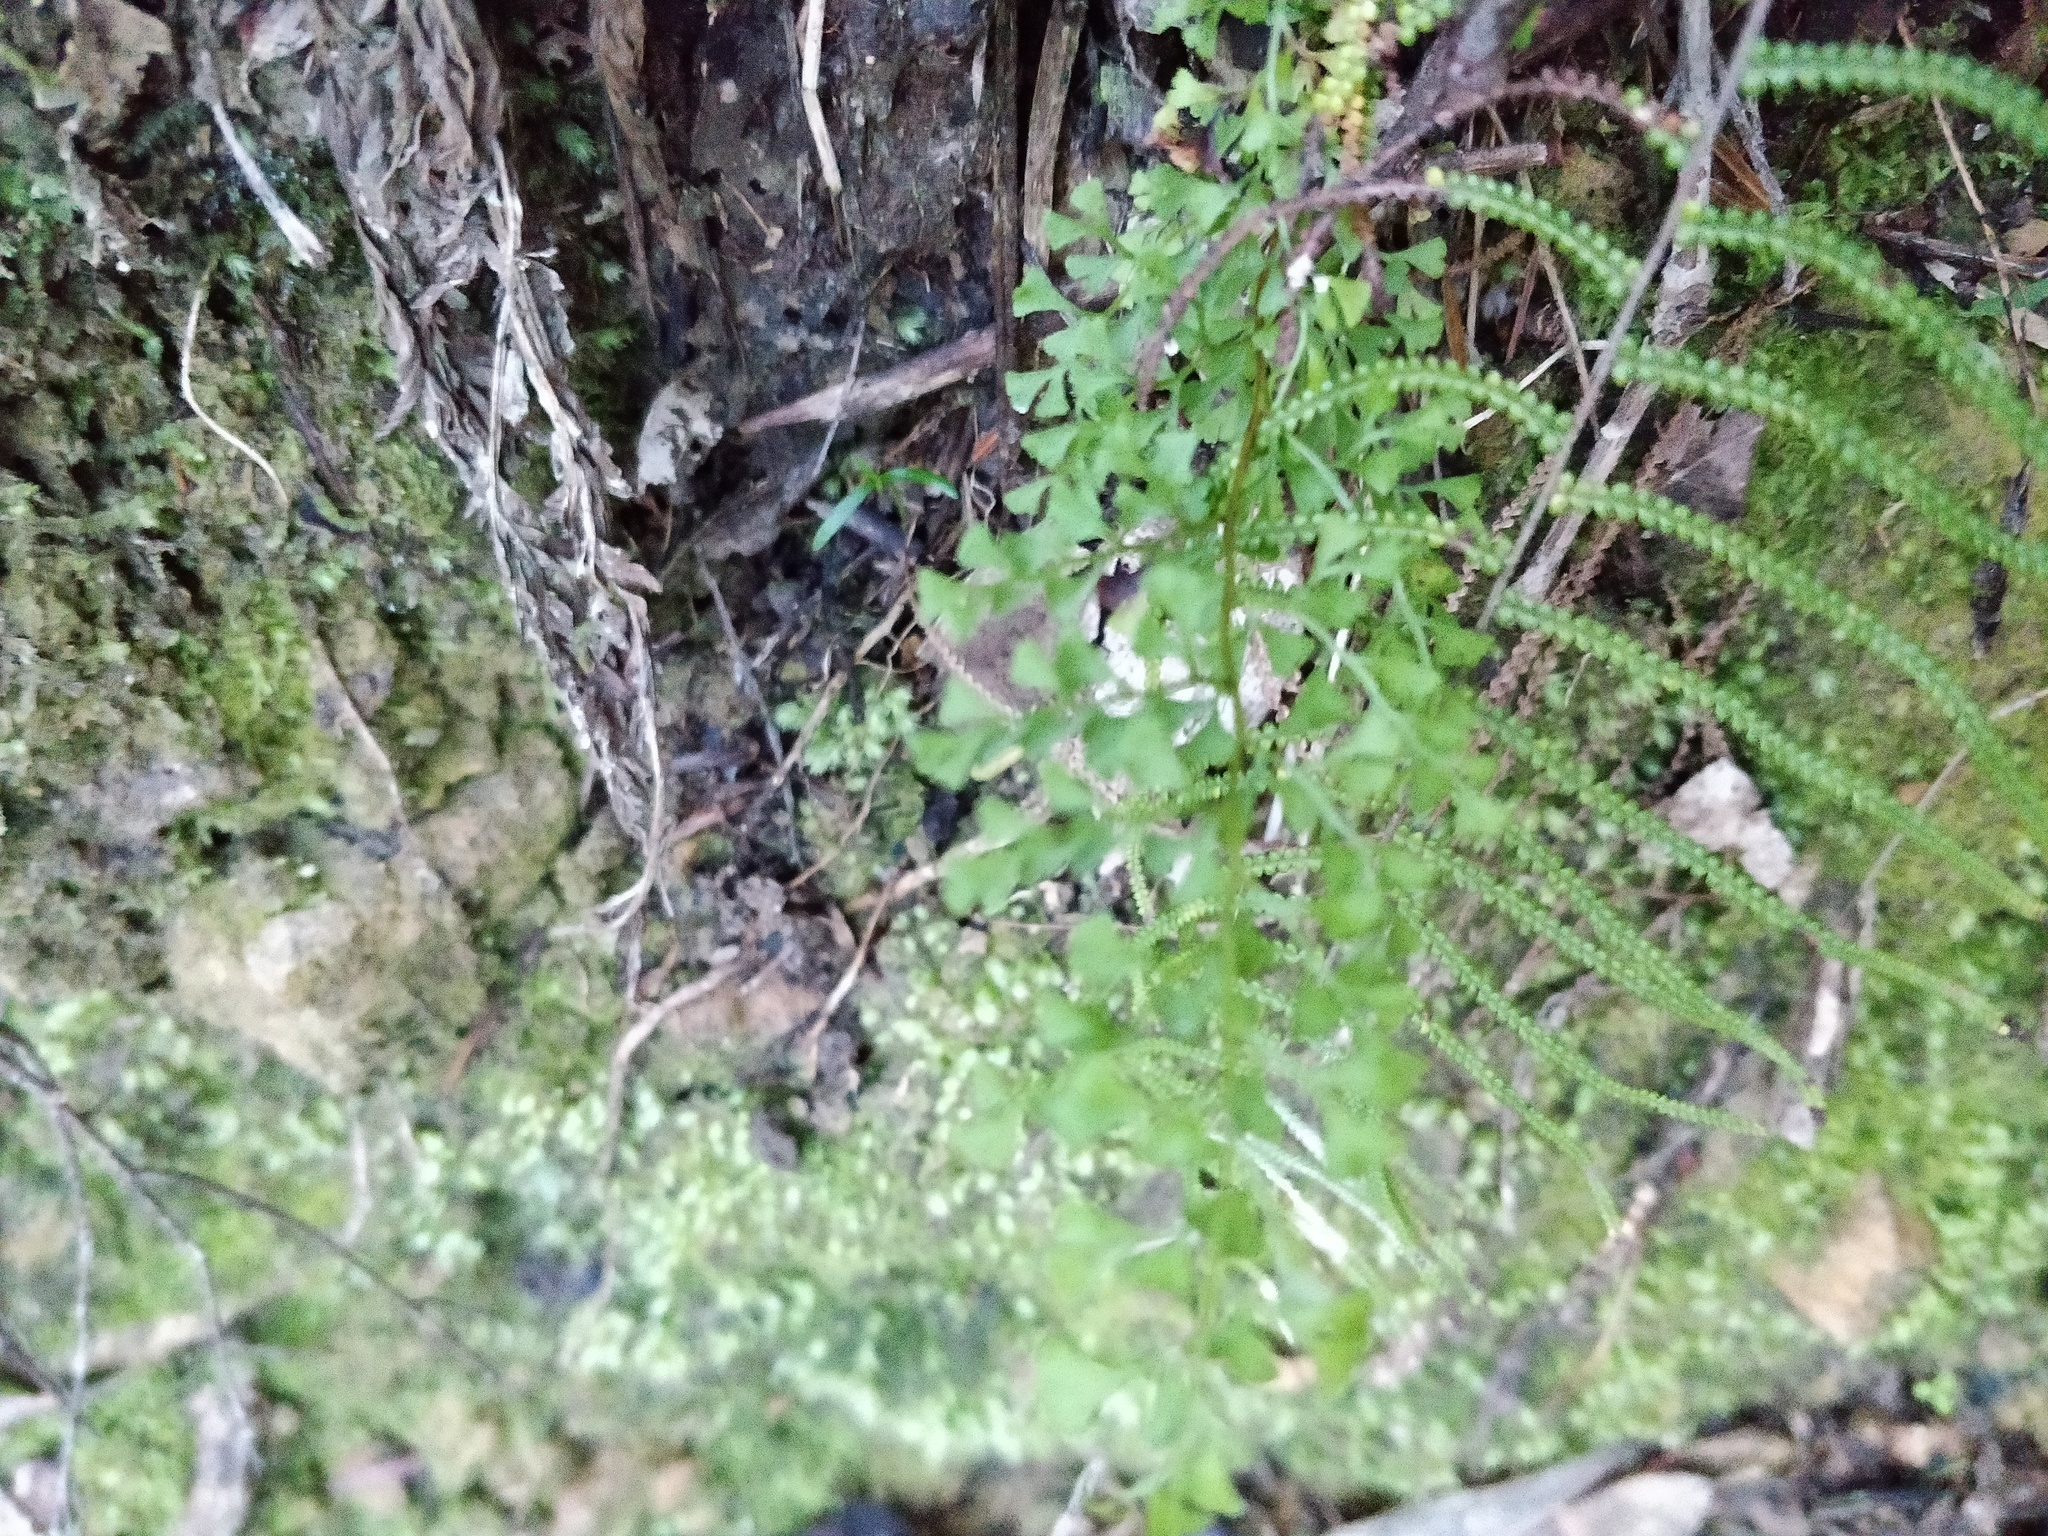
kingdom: Plantae
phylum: Tracheophyta
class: Polypodiopsida
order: Polypodiales
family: Lindsaeaceae
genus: Lindsaea
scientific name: Lindsaea microphylla
